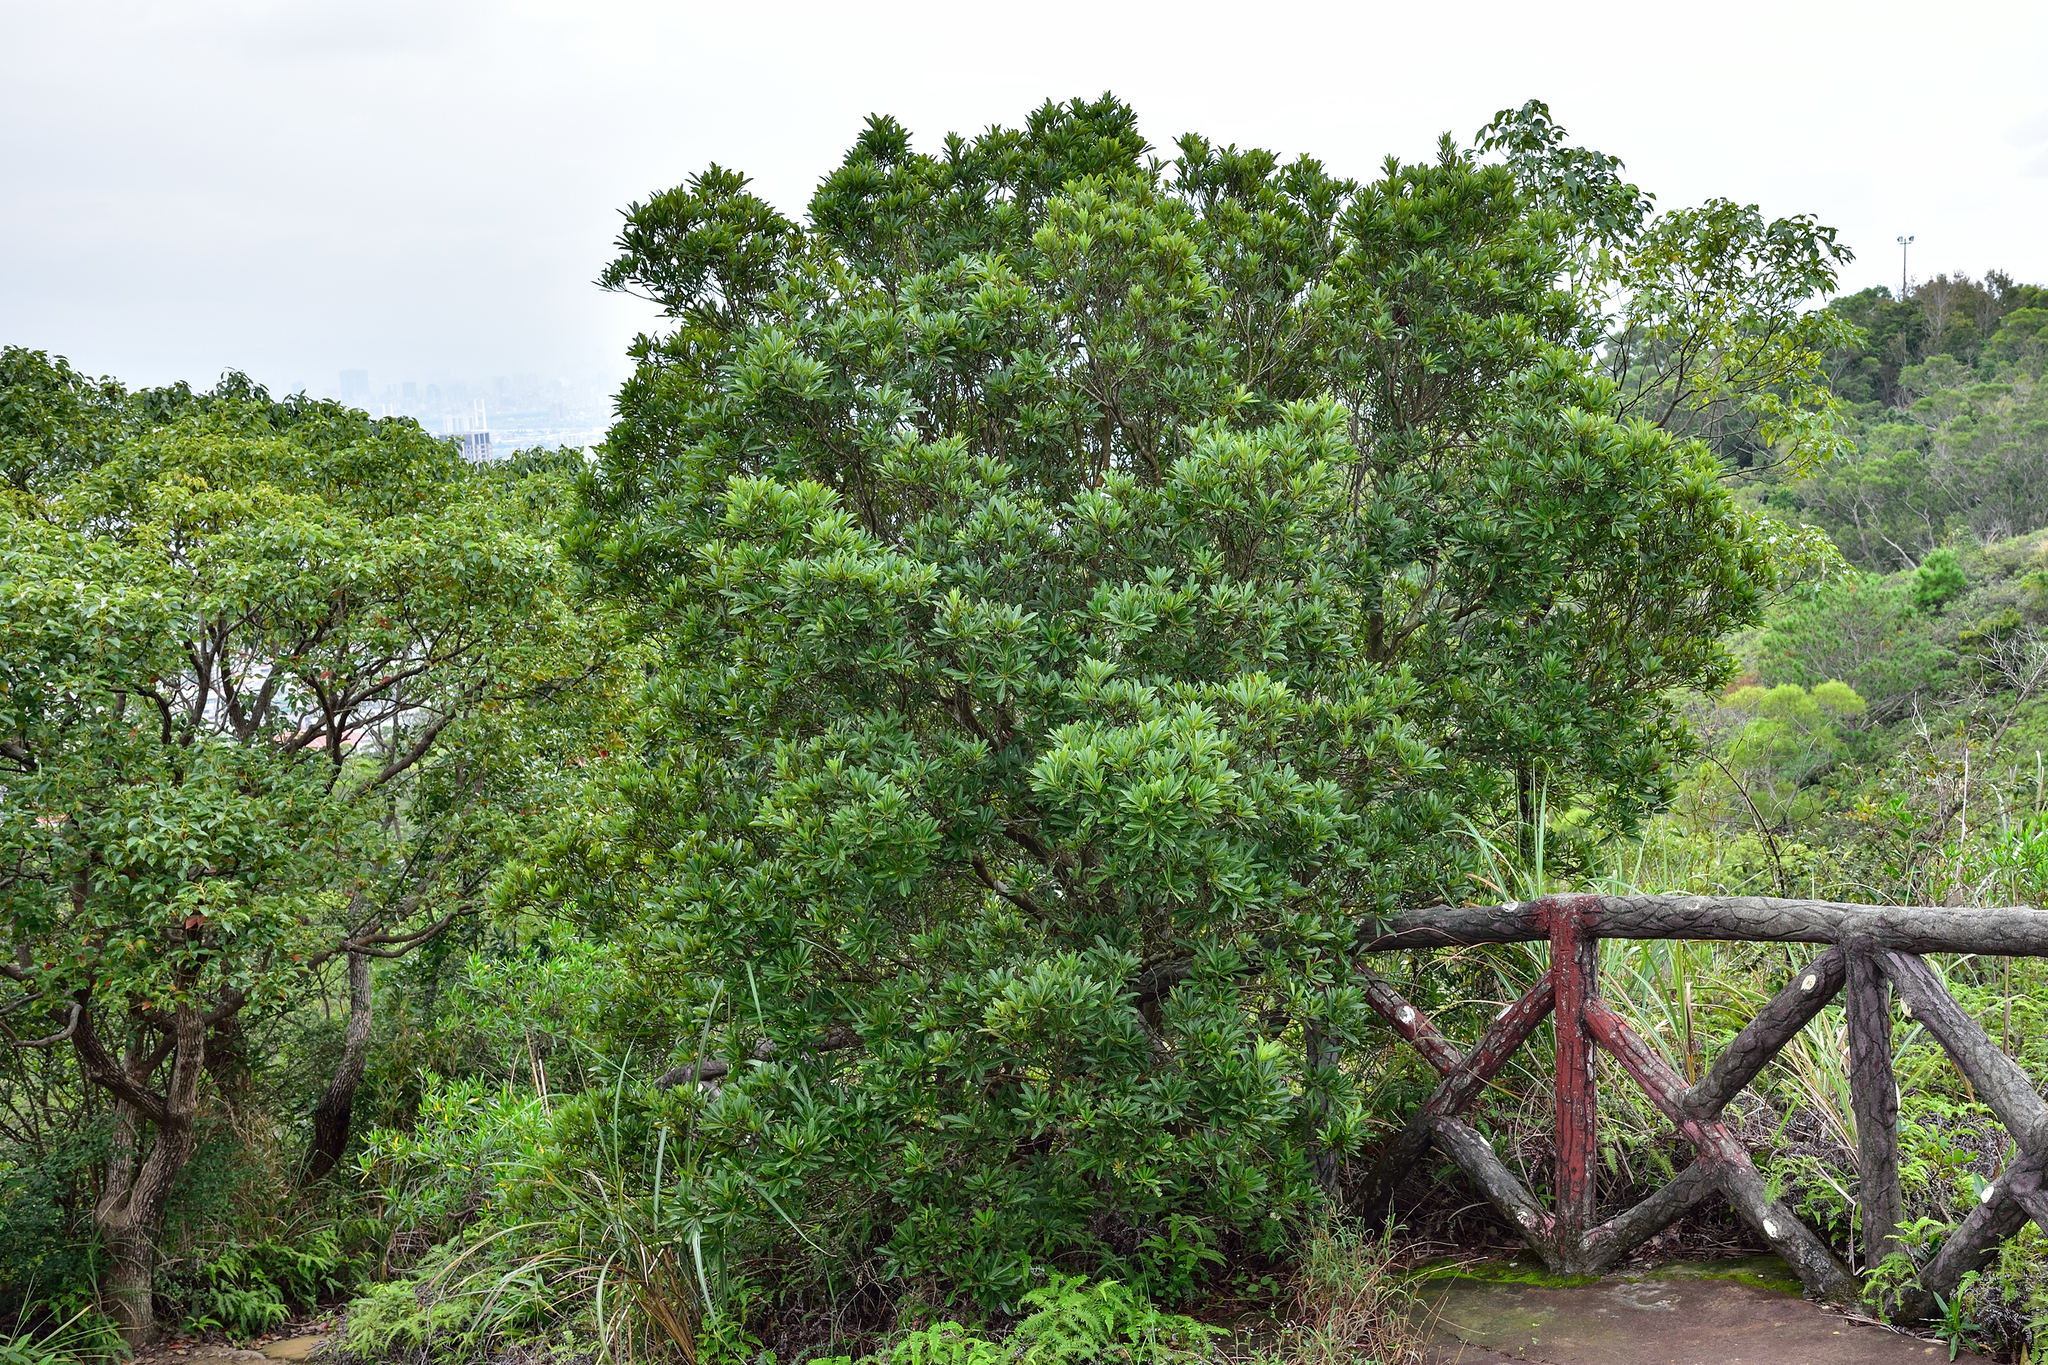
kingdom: Plantae
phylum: Tracheophyta
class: Magnoliopsida
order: Fagales
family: Myricaceae
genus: Morella
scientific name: Morella rubra
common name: Red bayberry
